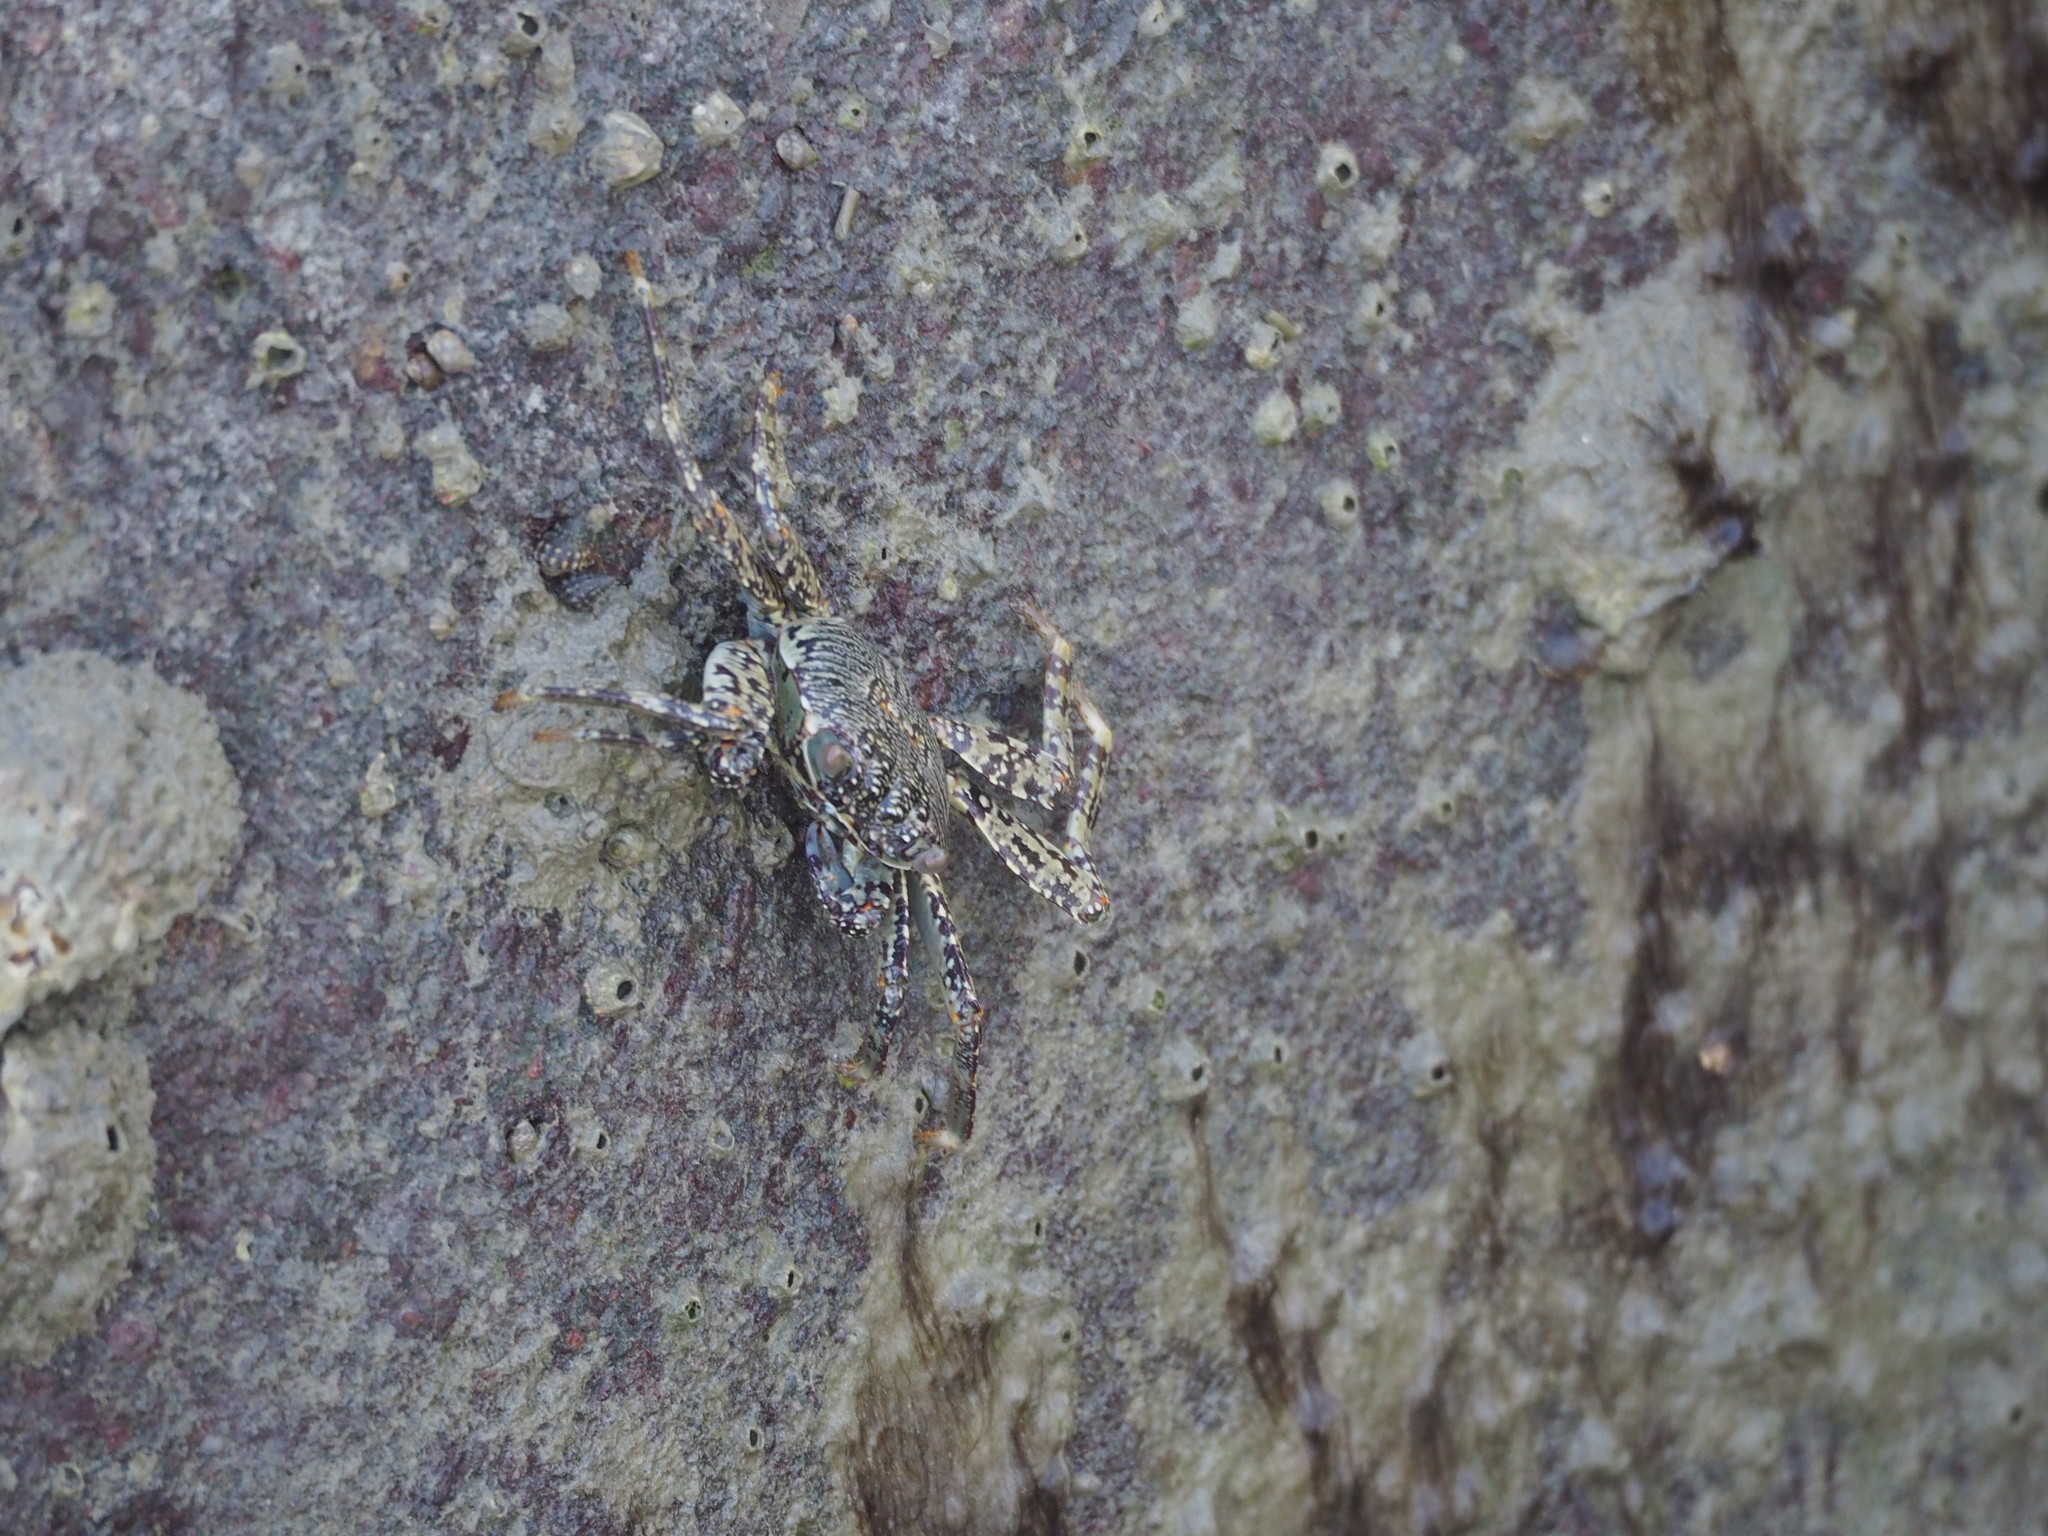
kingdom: Animalia
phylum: Arthropoda
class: Malacostraca
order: Decapoda
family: Grapsidae
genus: Grapsus
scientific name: Grapsus albolineatus
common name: Mottled lightfoot crab
